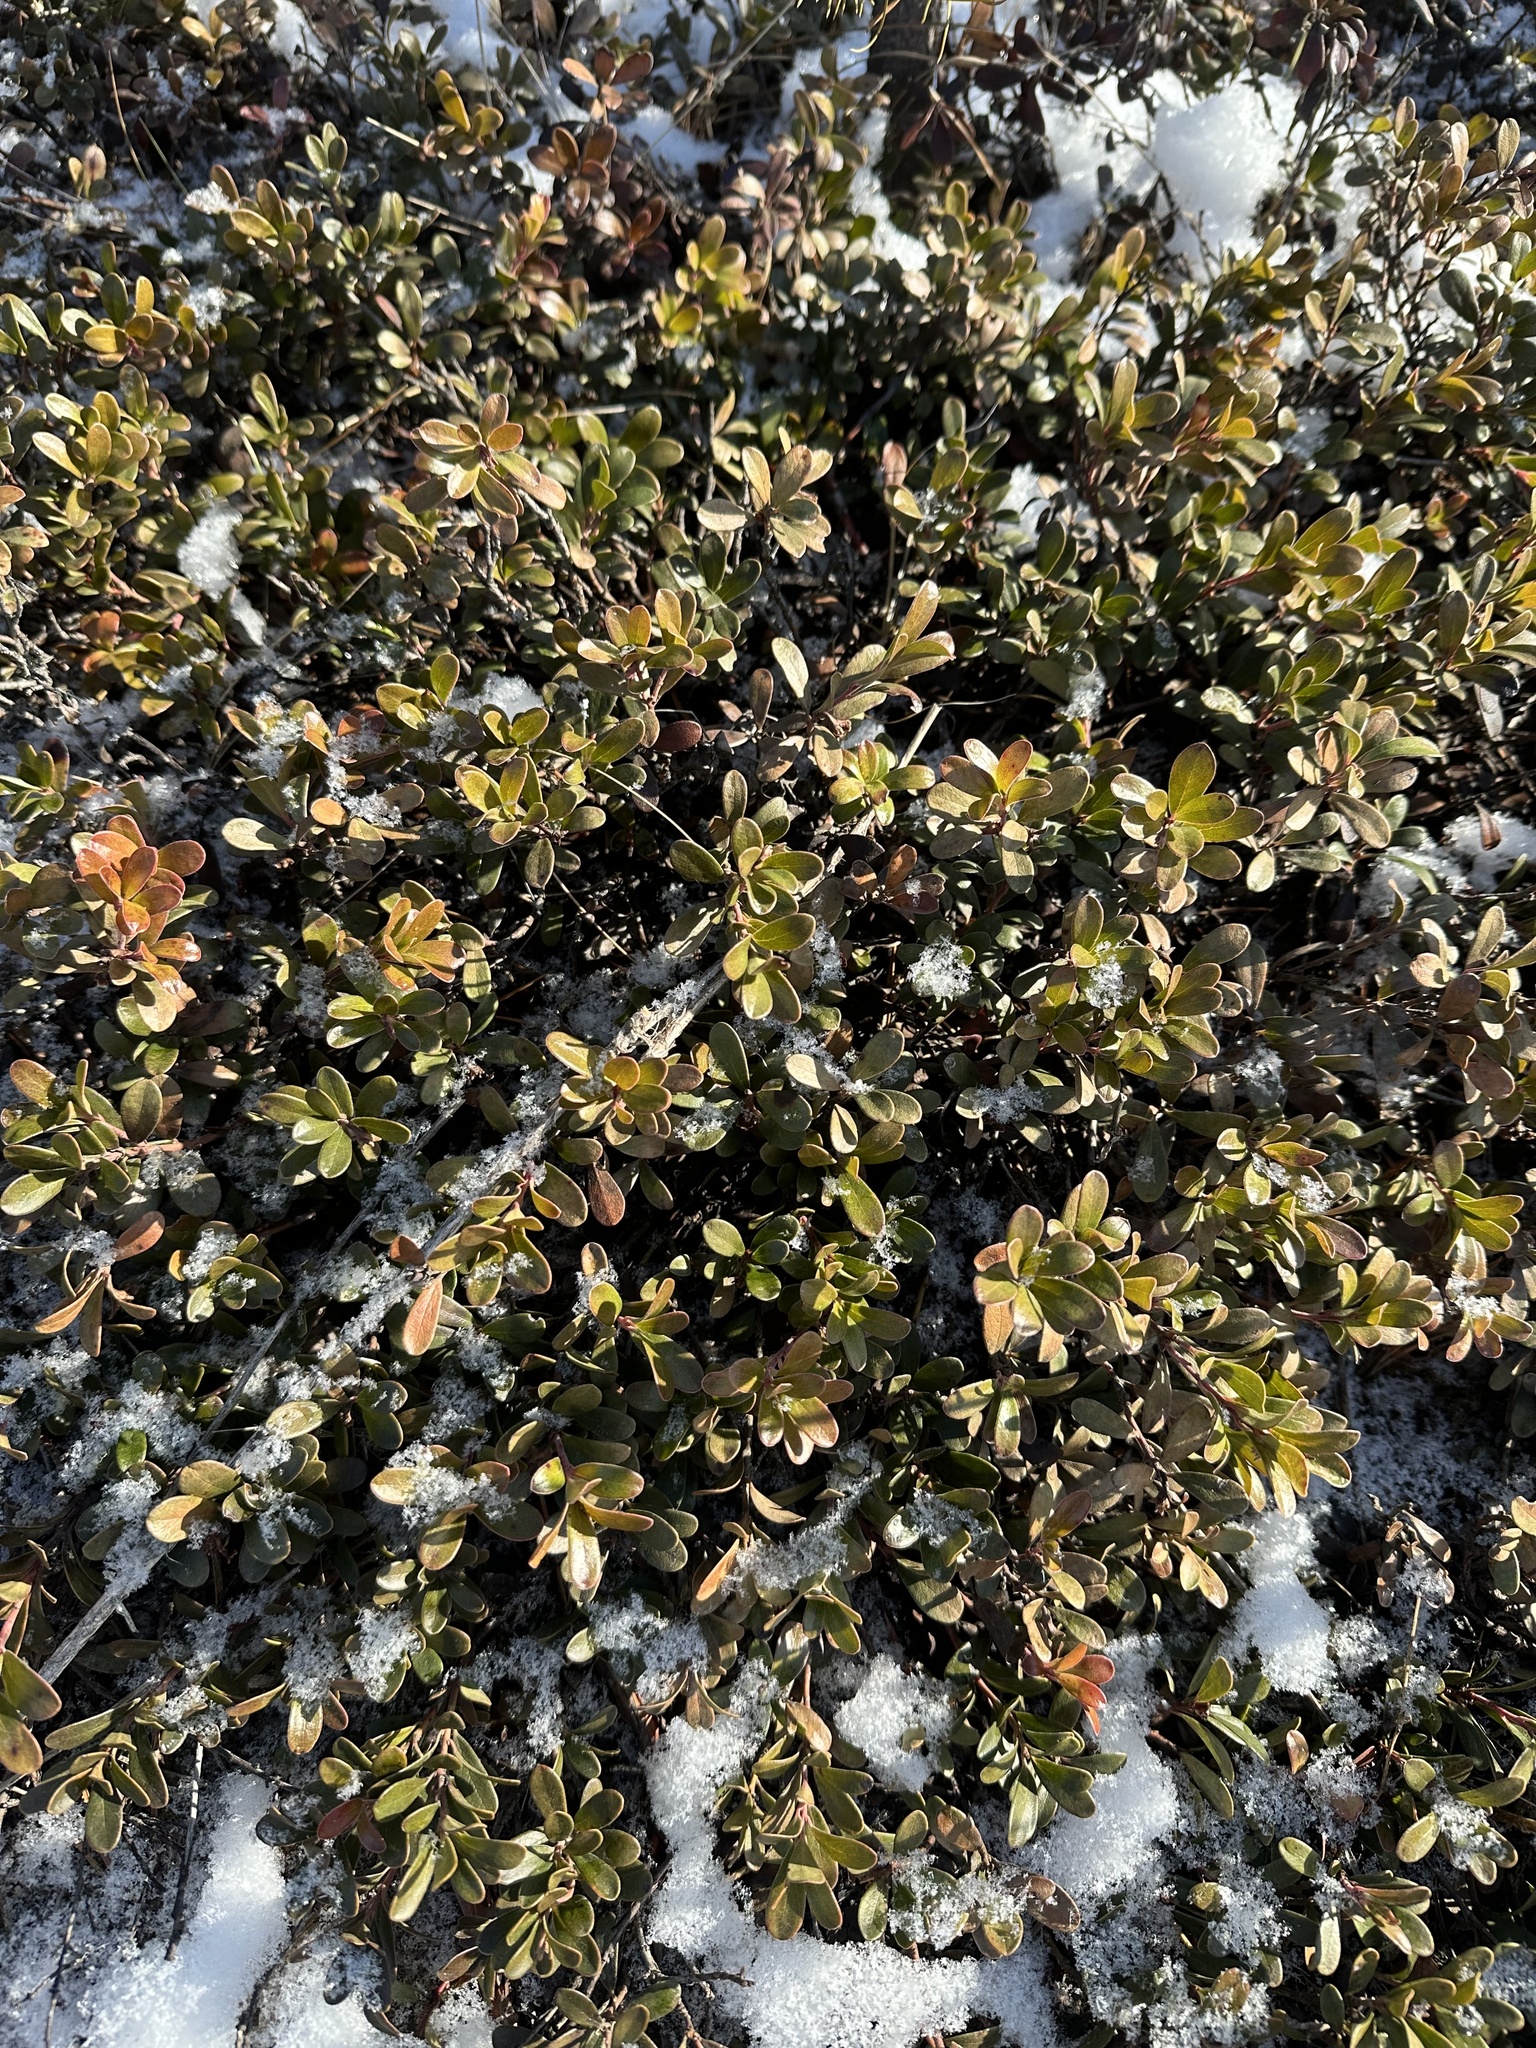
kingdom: Plantae
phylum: Tracheophyta
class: Magnoliopsida
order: Ericales
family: Ericaceae
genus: Arctostaphylos
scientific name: Arctostaphylos uva-ursi
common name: Bearberry
